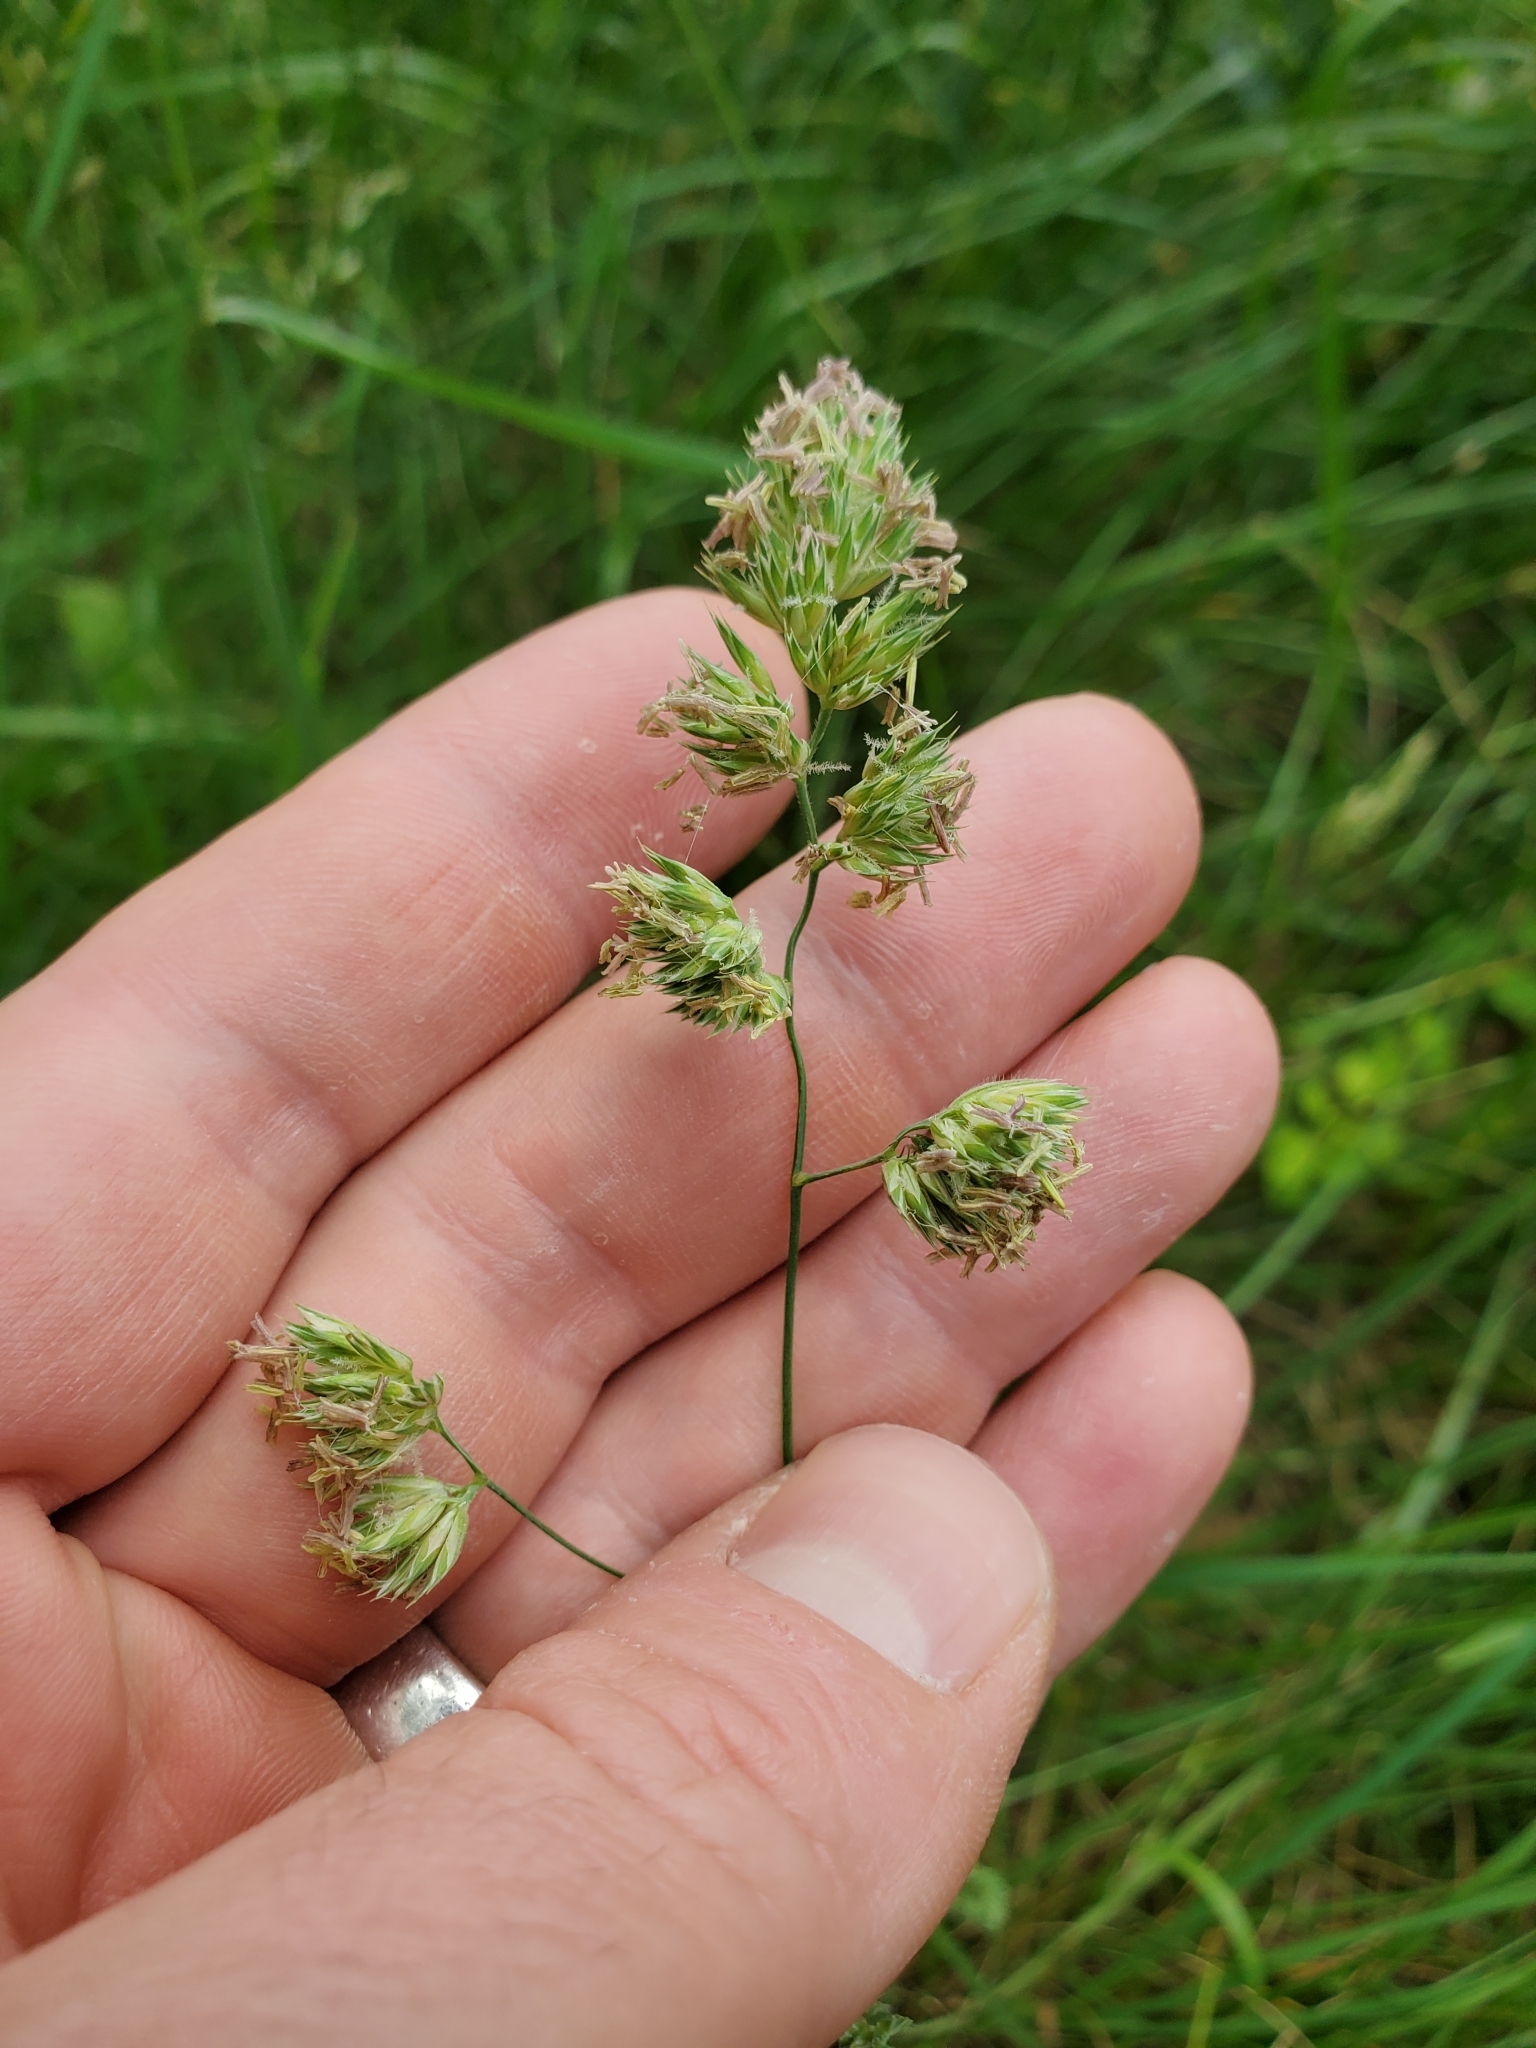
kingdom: Plantae
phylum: Tracheophyta
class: Liliopsida
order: Poales
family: Poaceae
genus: Dactylis
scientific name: Dactylis glomerata
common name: Orchardgrass
